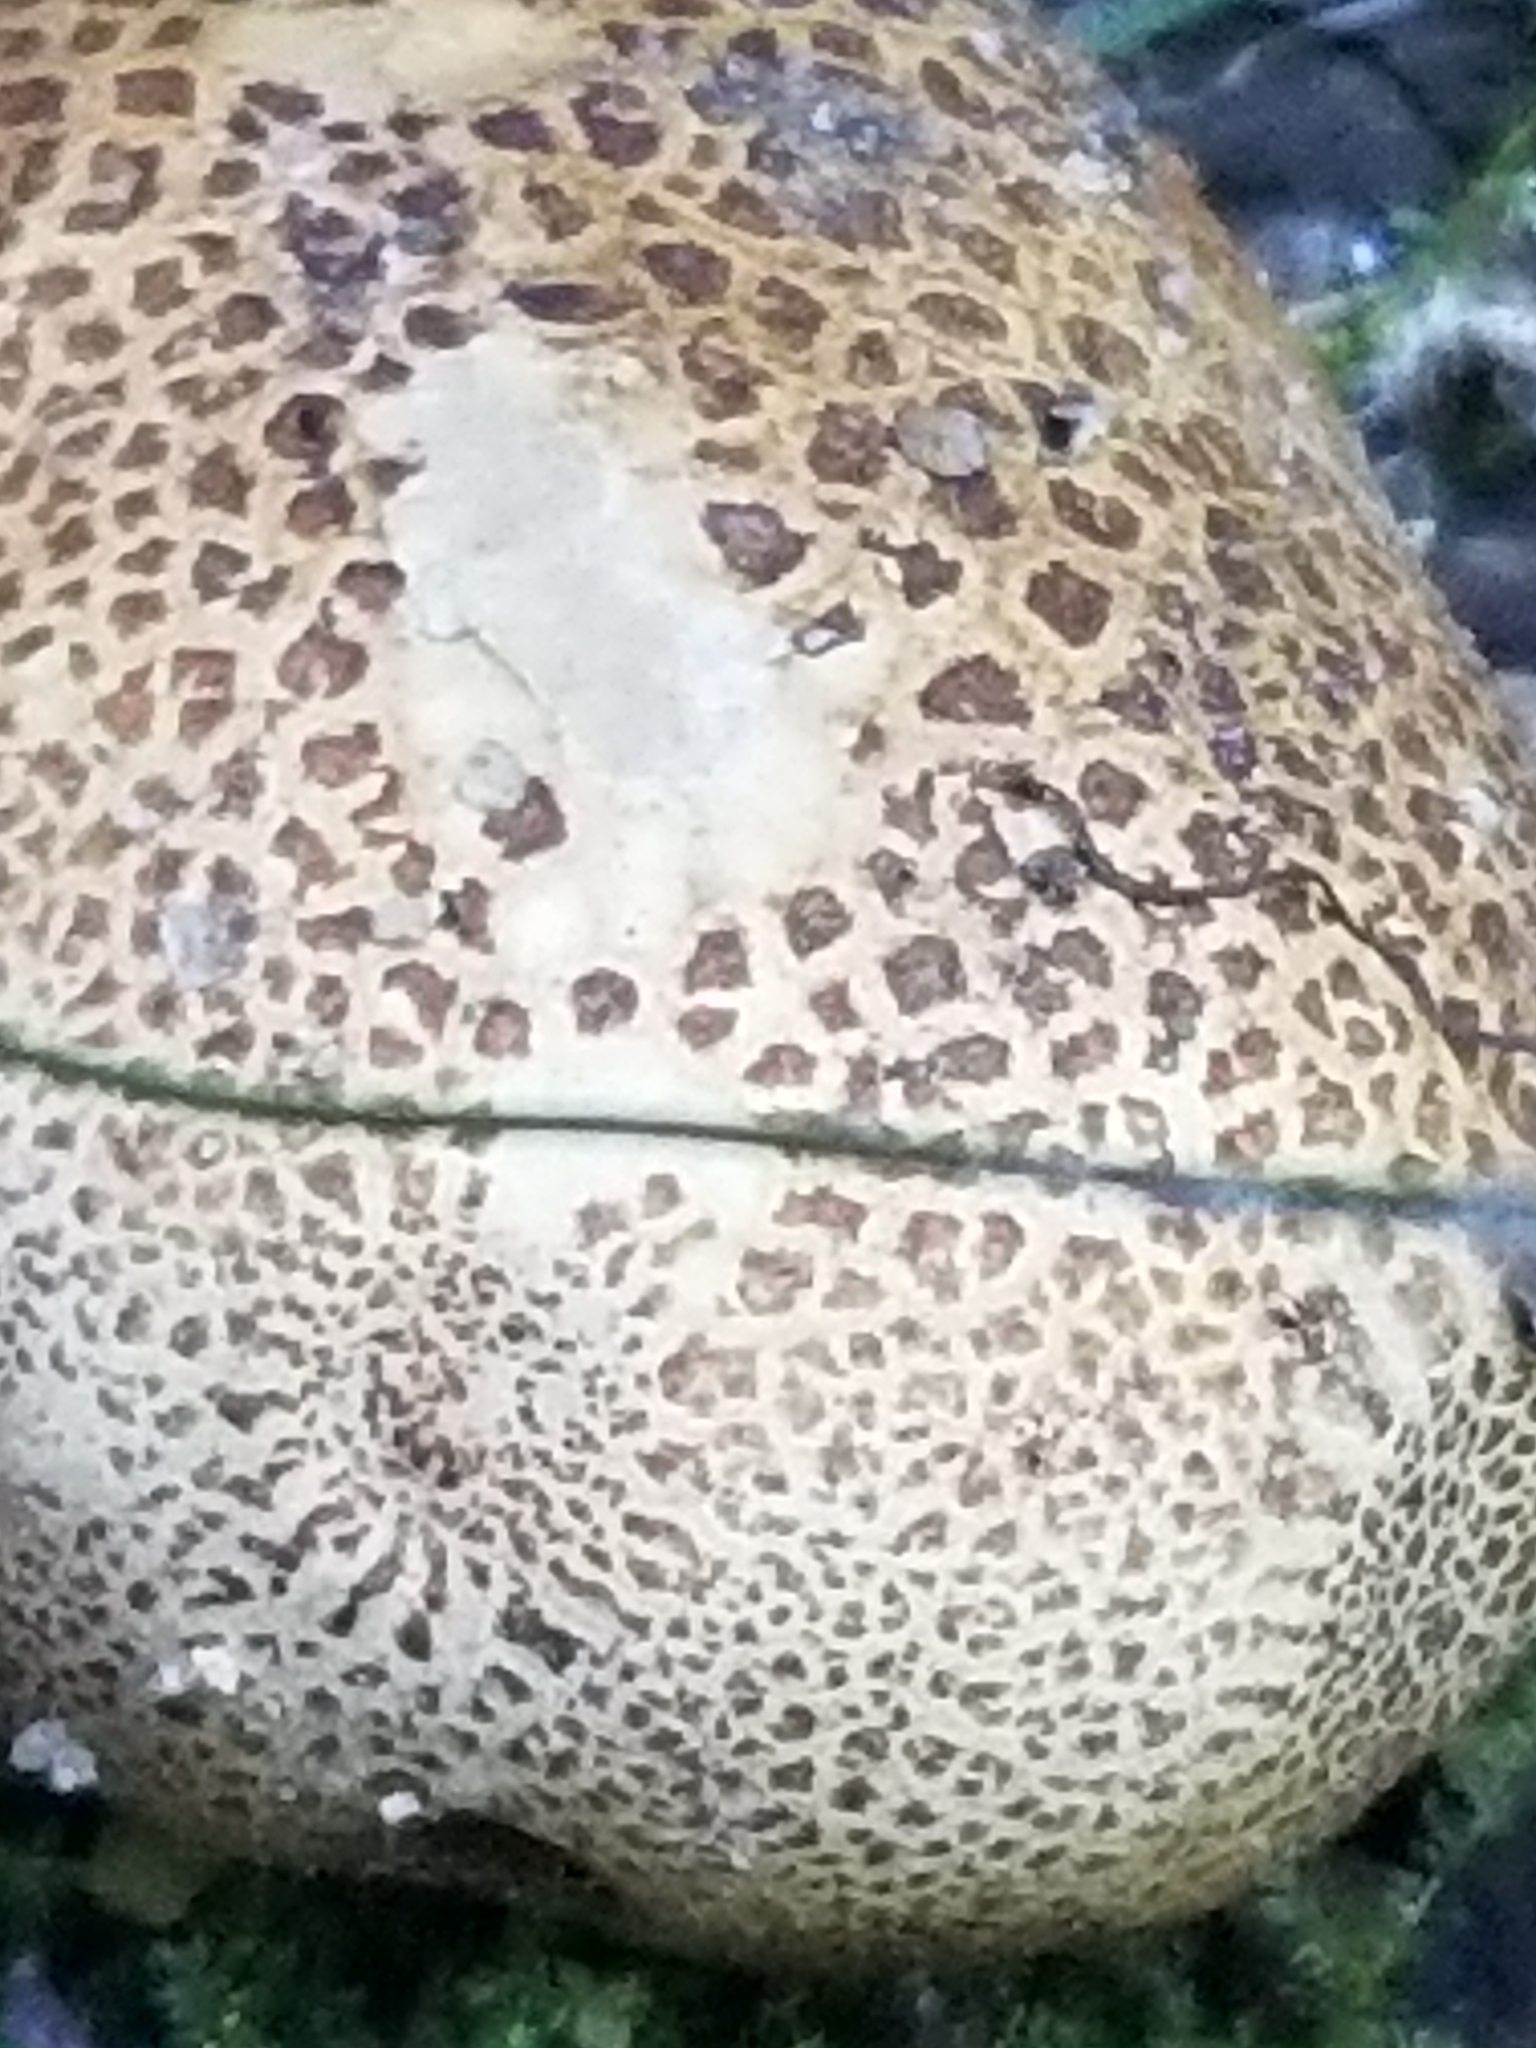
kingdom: Fungi
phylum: Basidiomycota
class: Agaricomycetes
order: Boletales
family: Sclerodermataceae
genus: Scleroderma
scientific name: Scleroderma citrinum
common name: Common earthball
